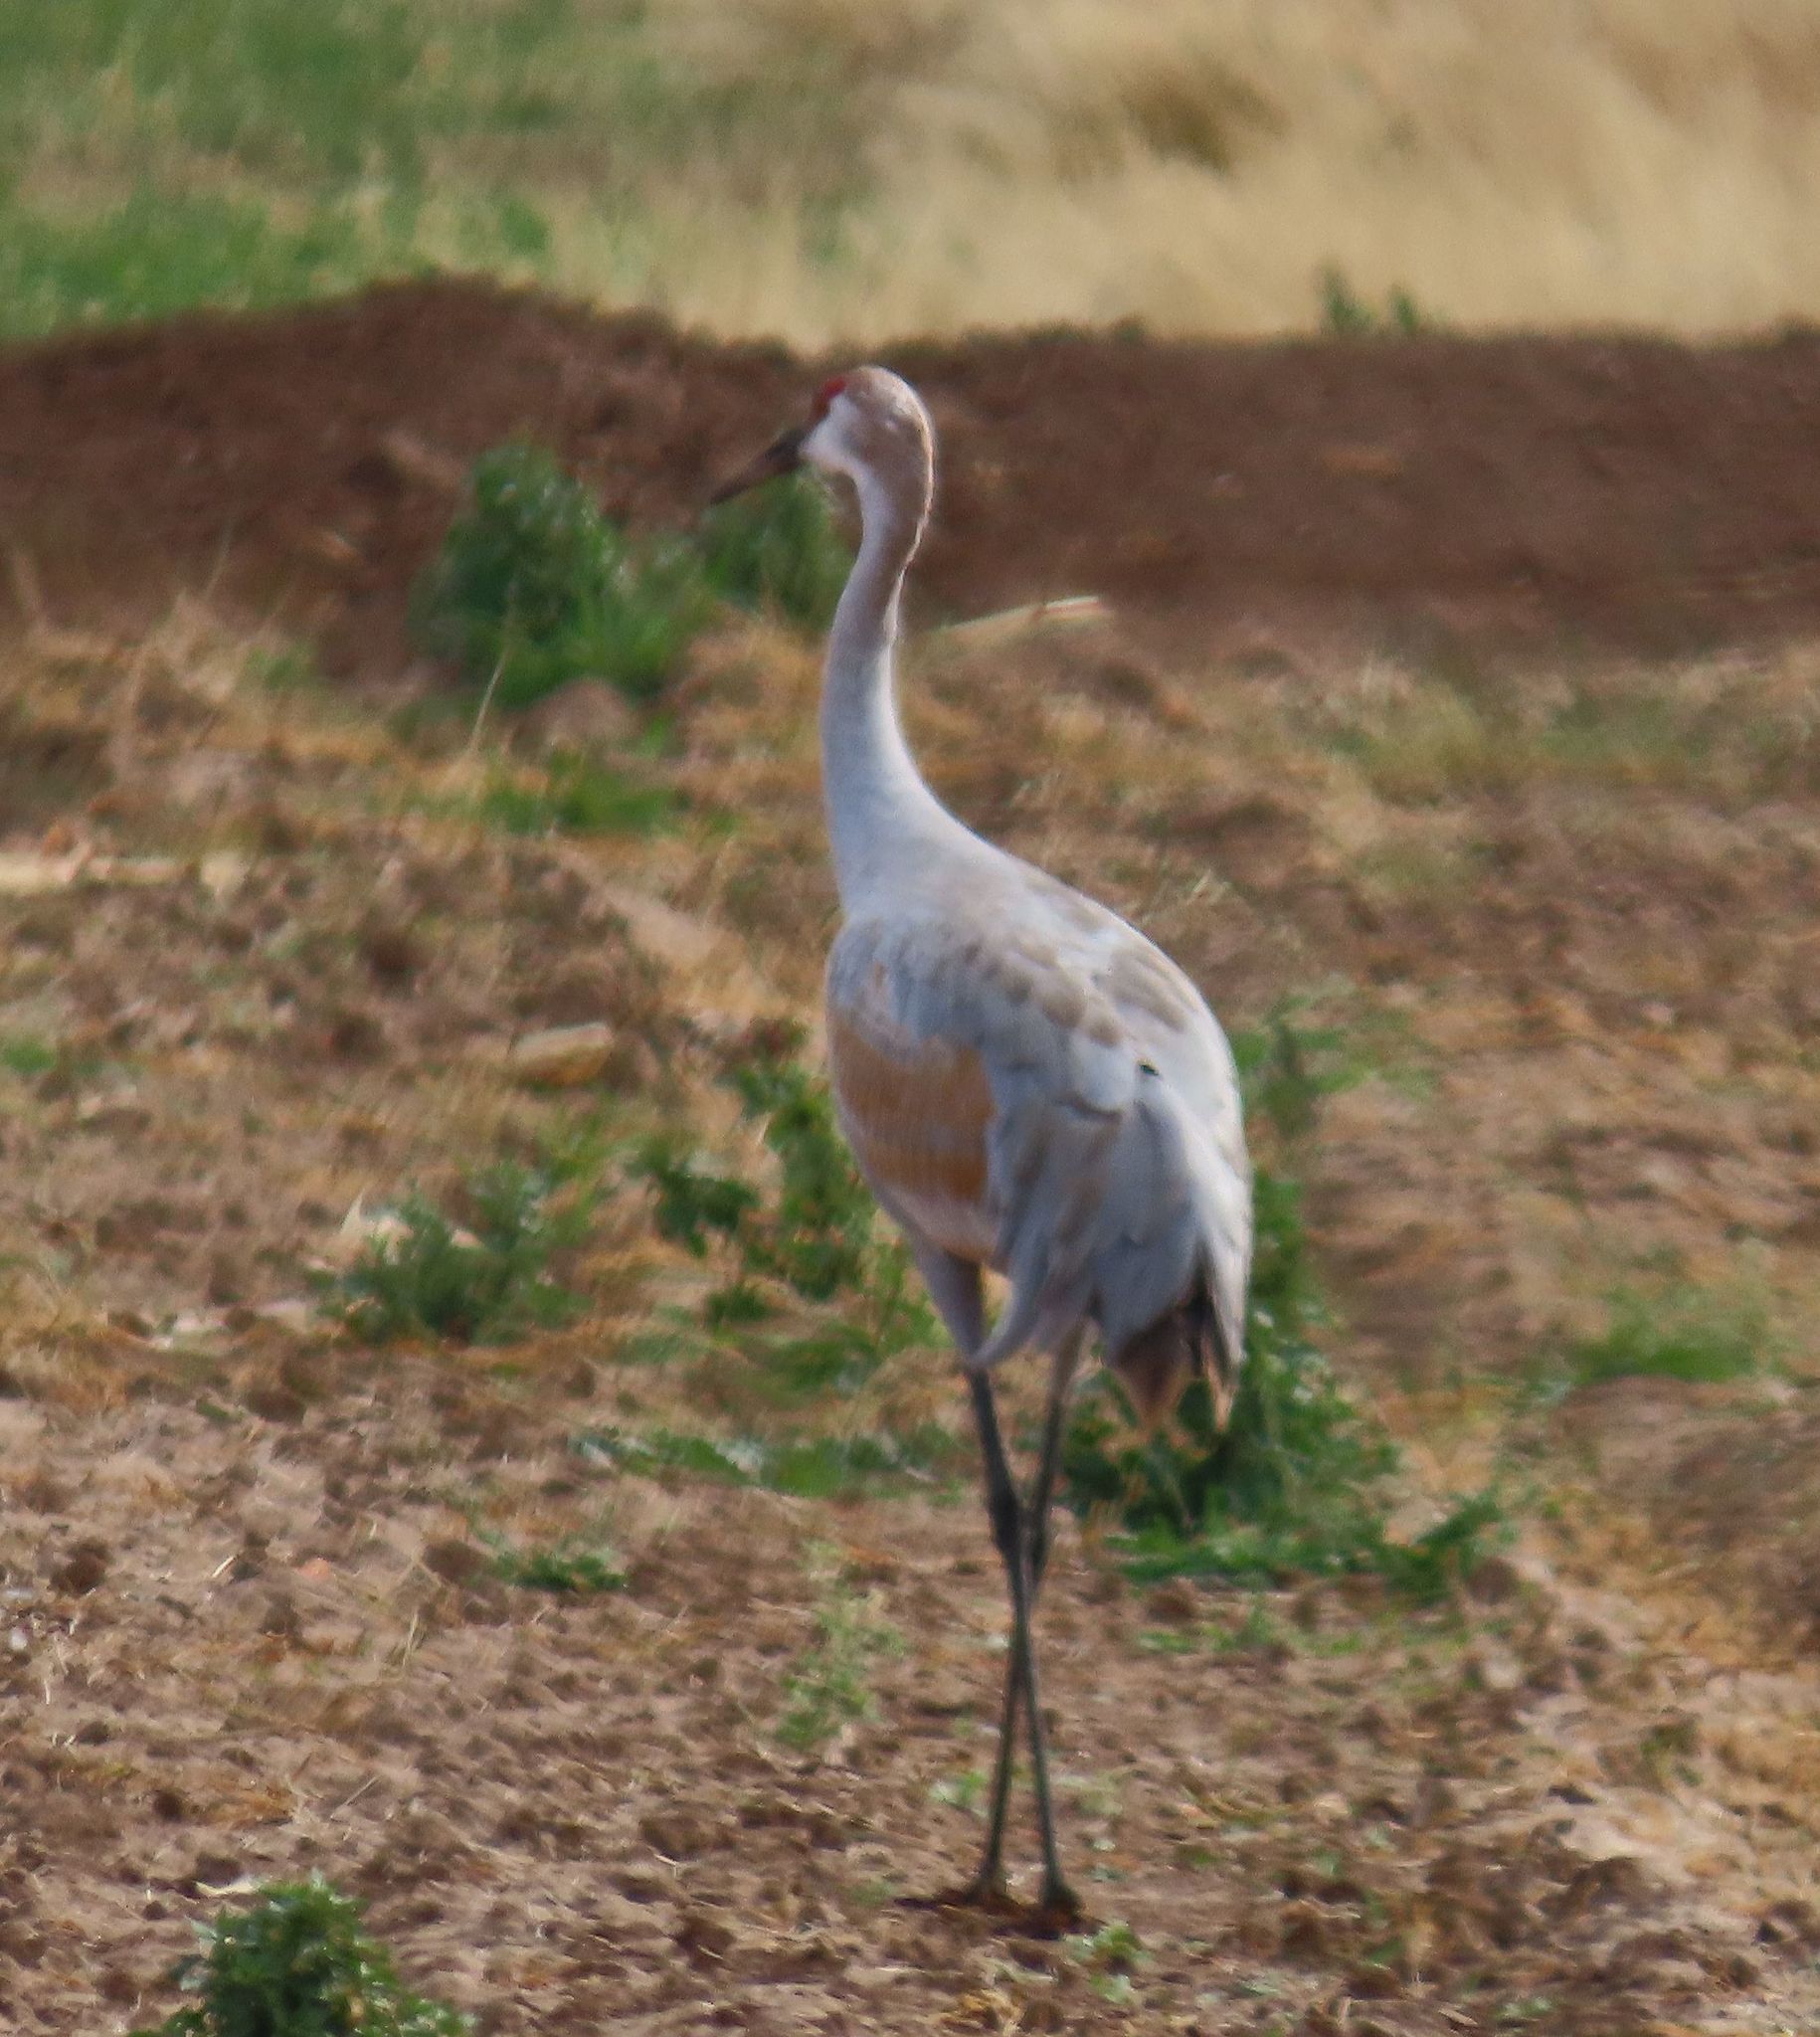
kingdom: Animalia
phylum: Chordata
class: Aves
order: Gruiformes
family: Gruidae
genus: Grus
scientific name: Grus canadensis
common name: Sandhill crane
